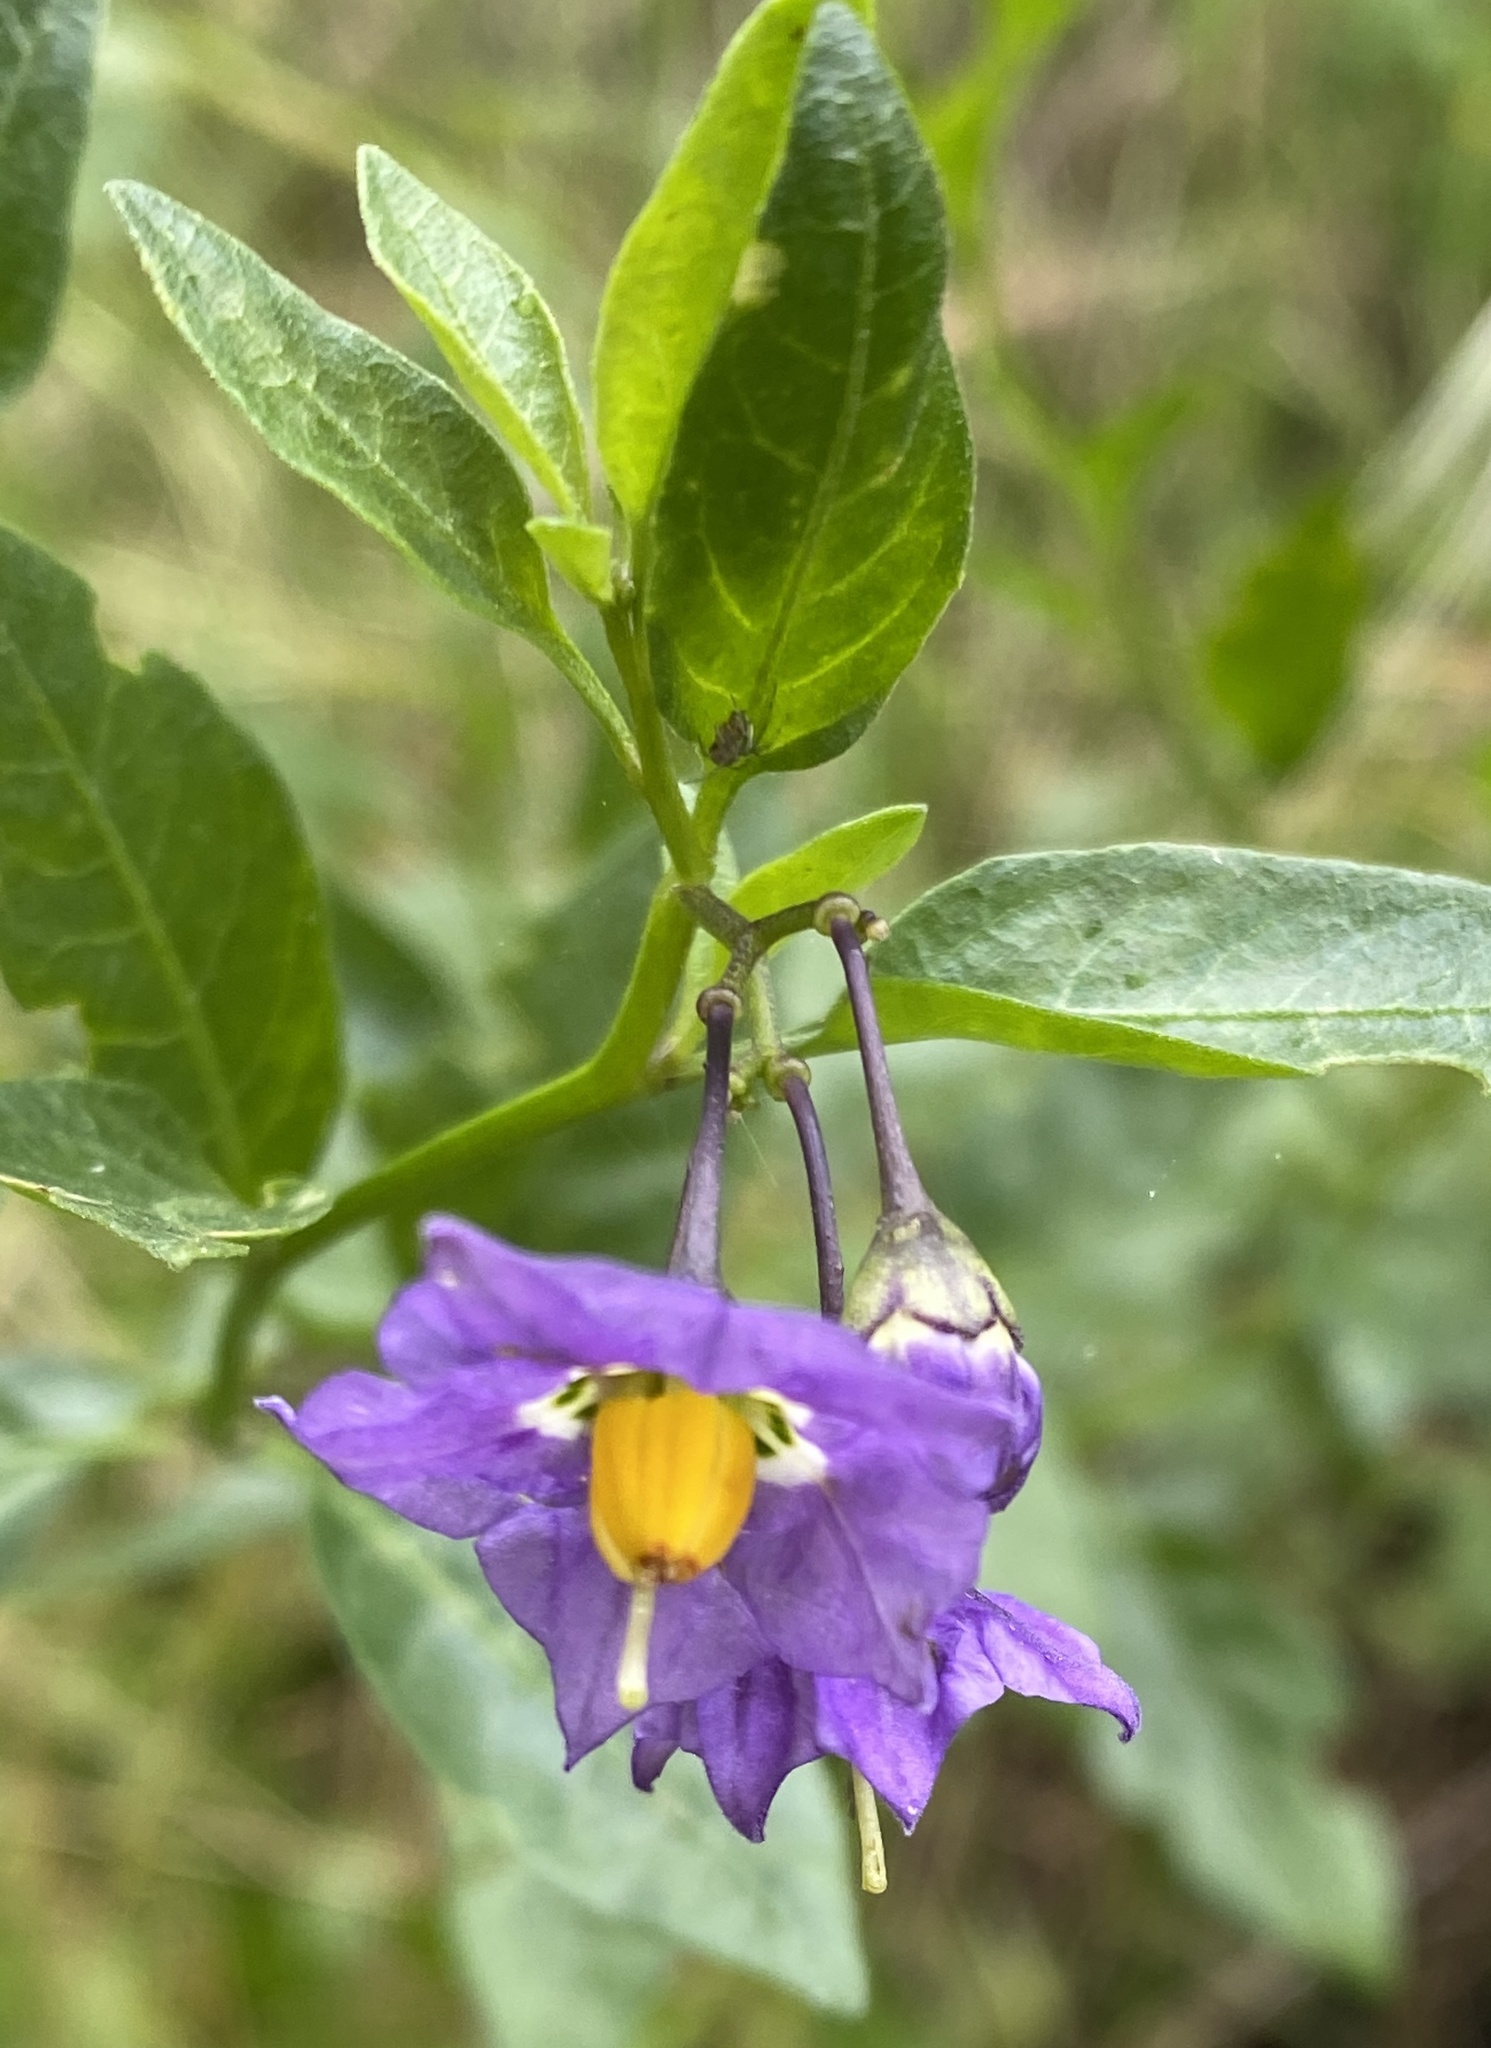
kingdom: Plantae
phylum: Tracheophyta
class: Magnoliopsida
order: Solanales
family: Solanaceae
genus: Solanum
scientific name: Solanum umbelliferum
